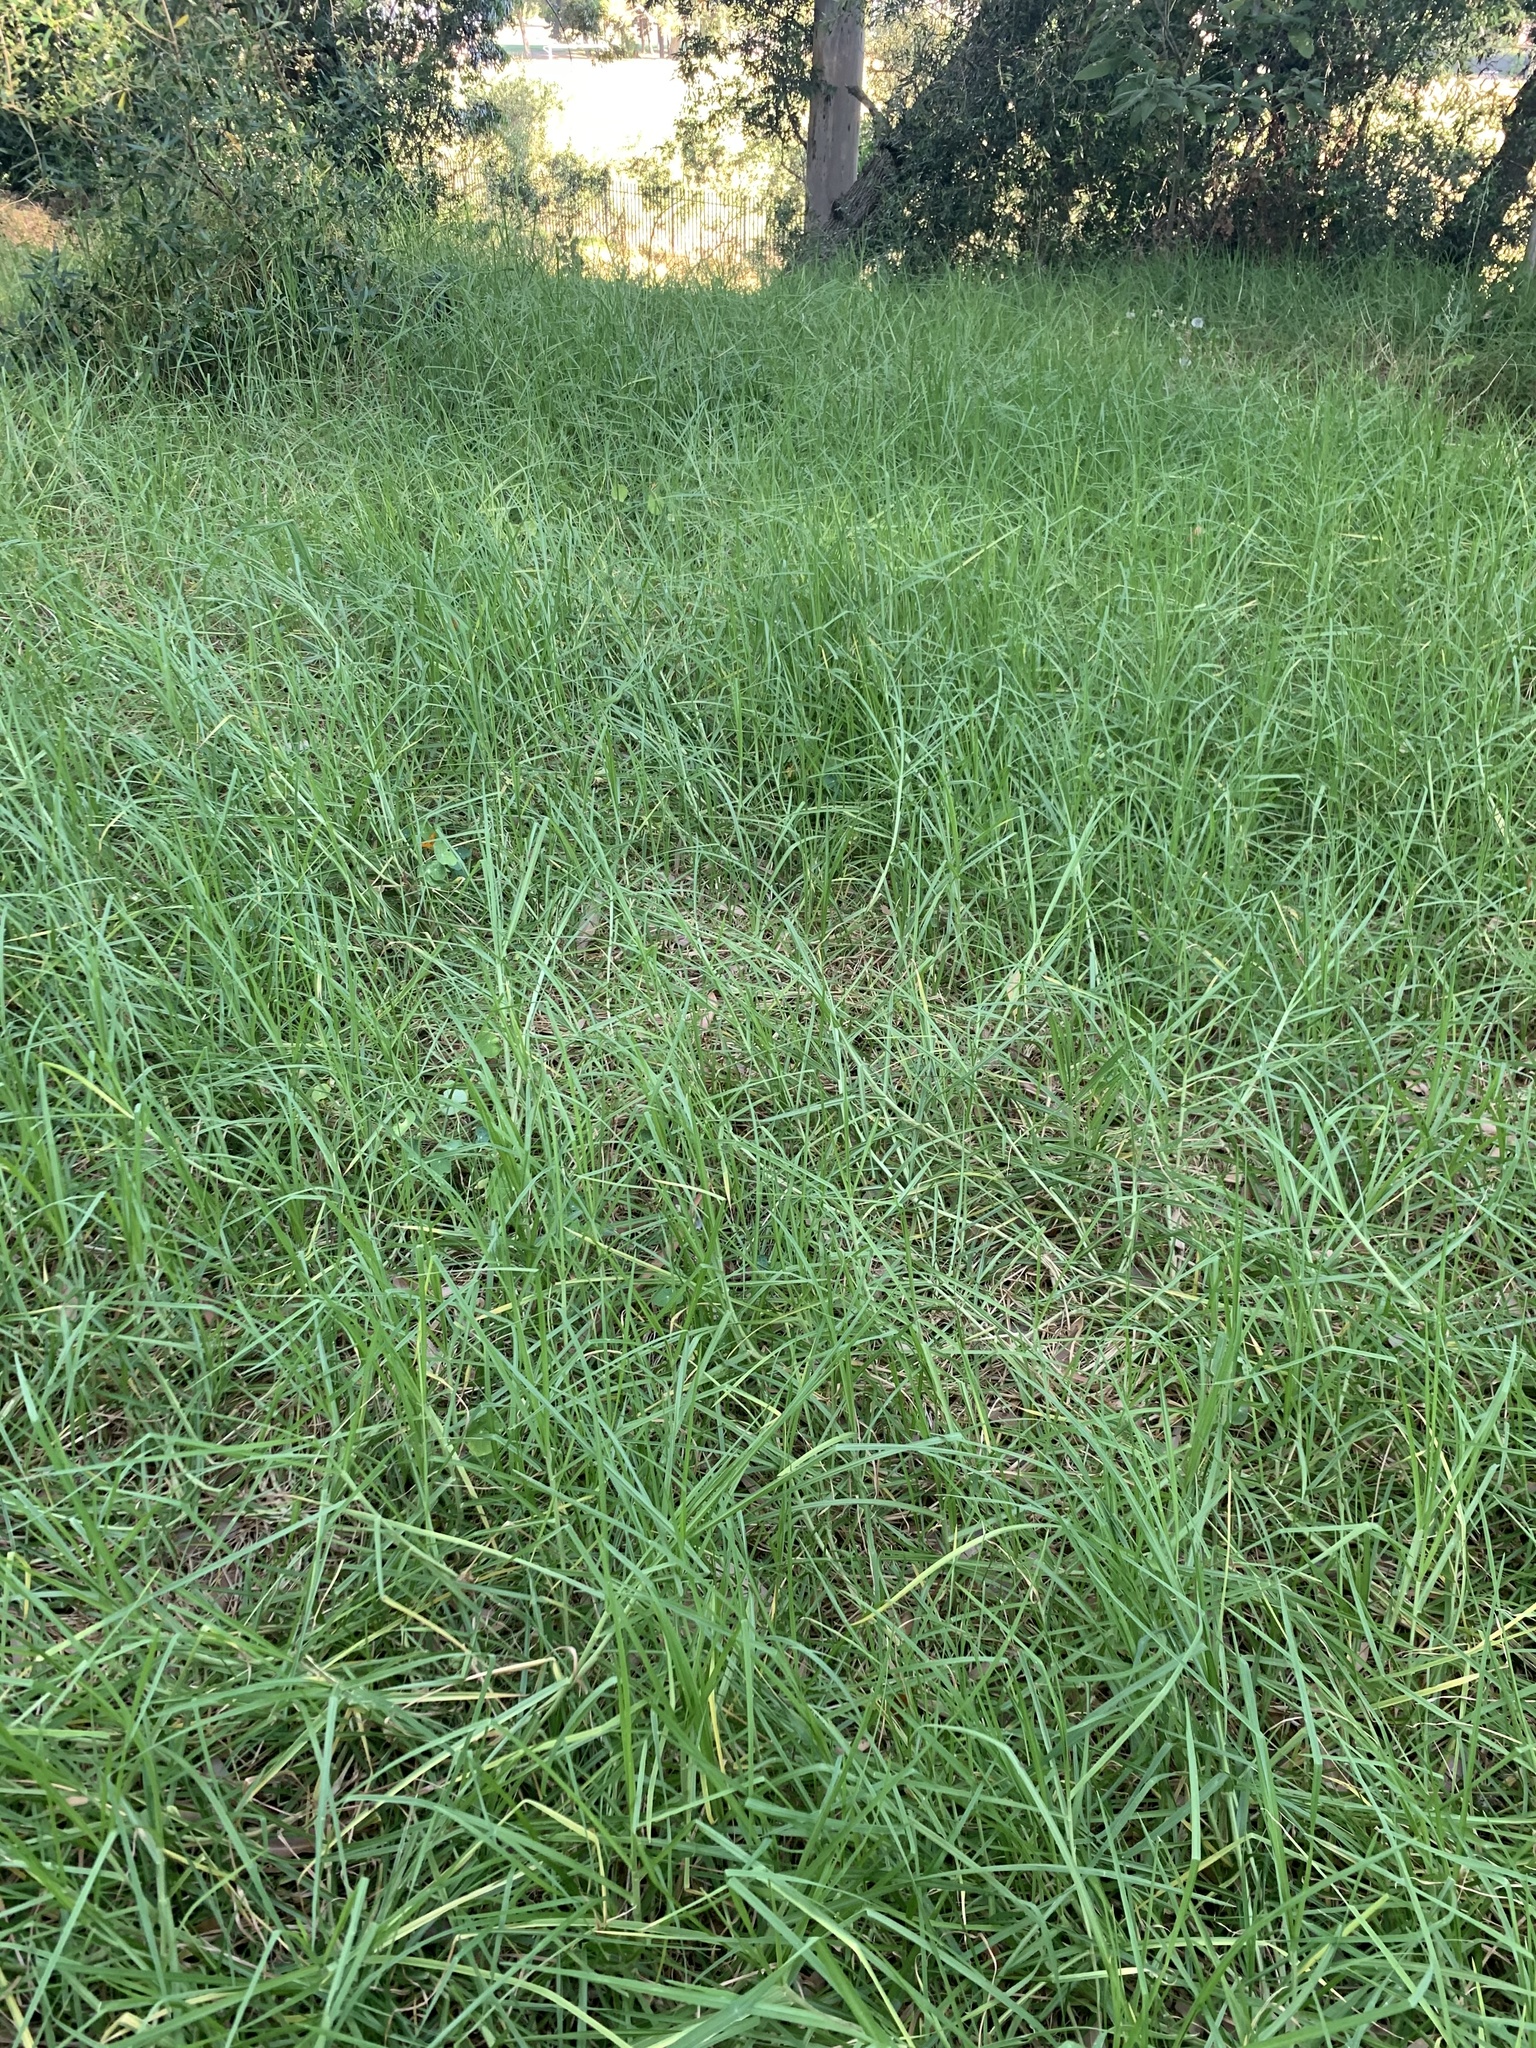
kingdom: Plantae
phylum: Tracheophyta
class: Liliopsida
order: Poales
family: Poaceae
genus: Cenchrus
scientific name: Cenchrus clandestinus
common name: Kikuyugrass
